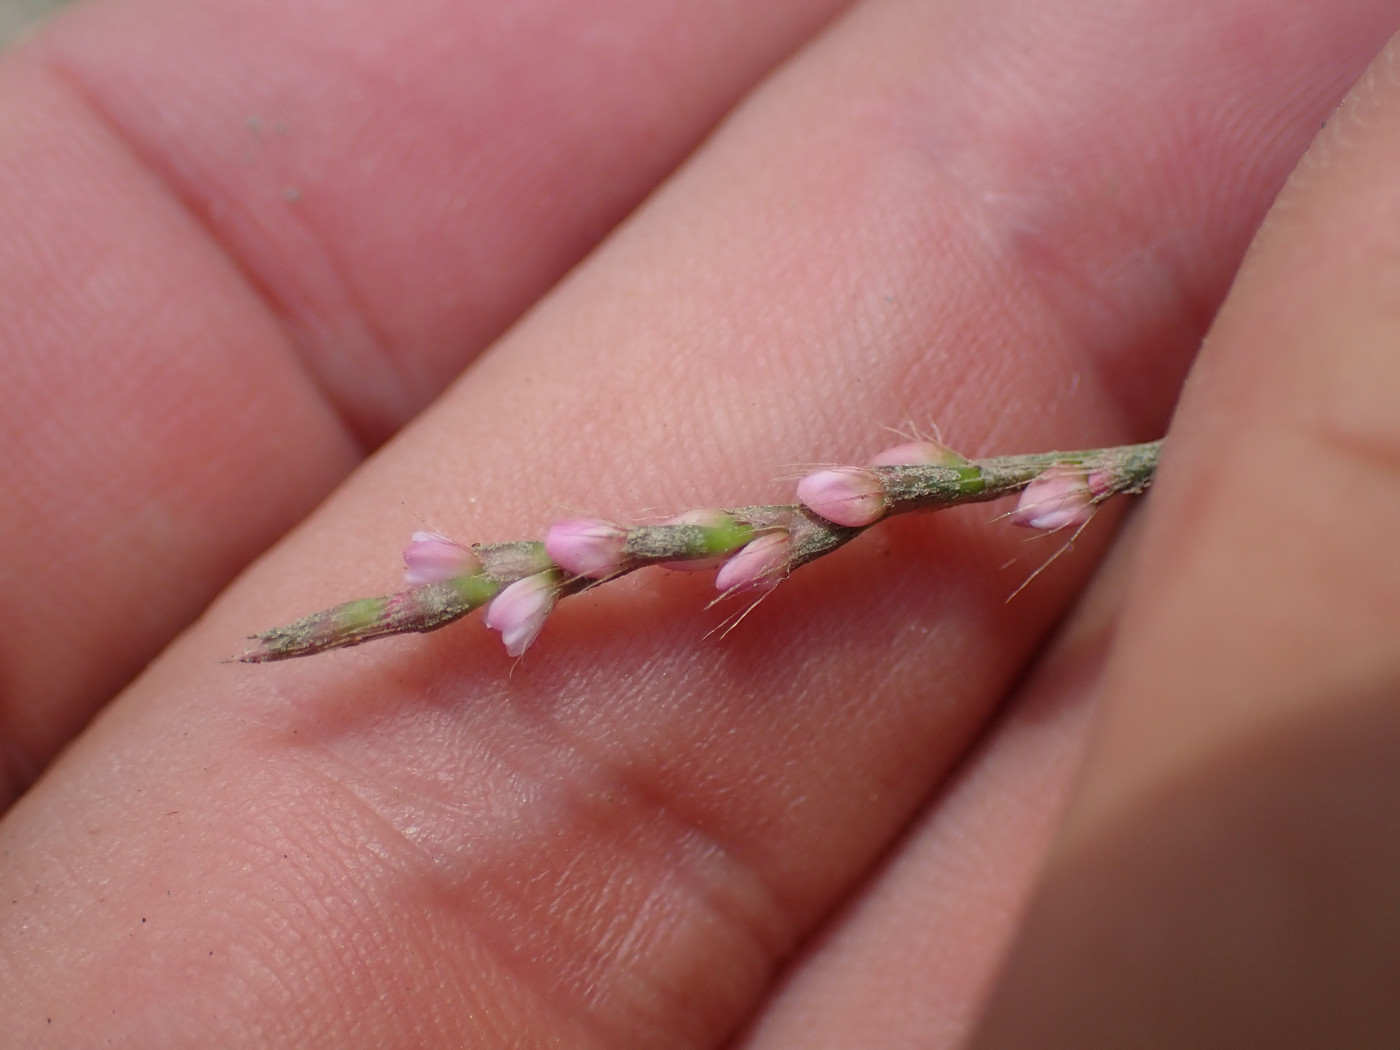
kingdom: Plantae
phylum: Tracheophyta
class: Magnoliopsida
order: Caryophyllales
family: Polygonaceae
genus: Persicaria
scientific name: Persicaria longiseta
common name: Bristly lady's-thumb
